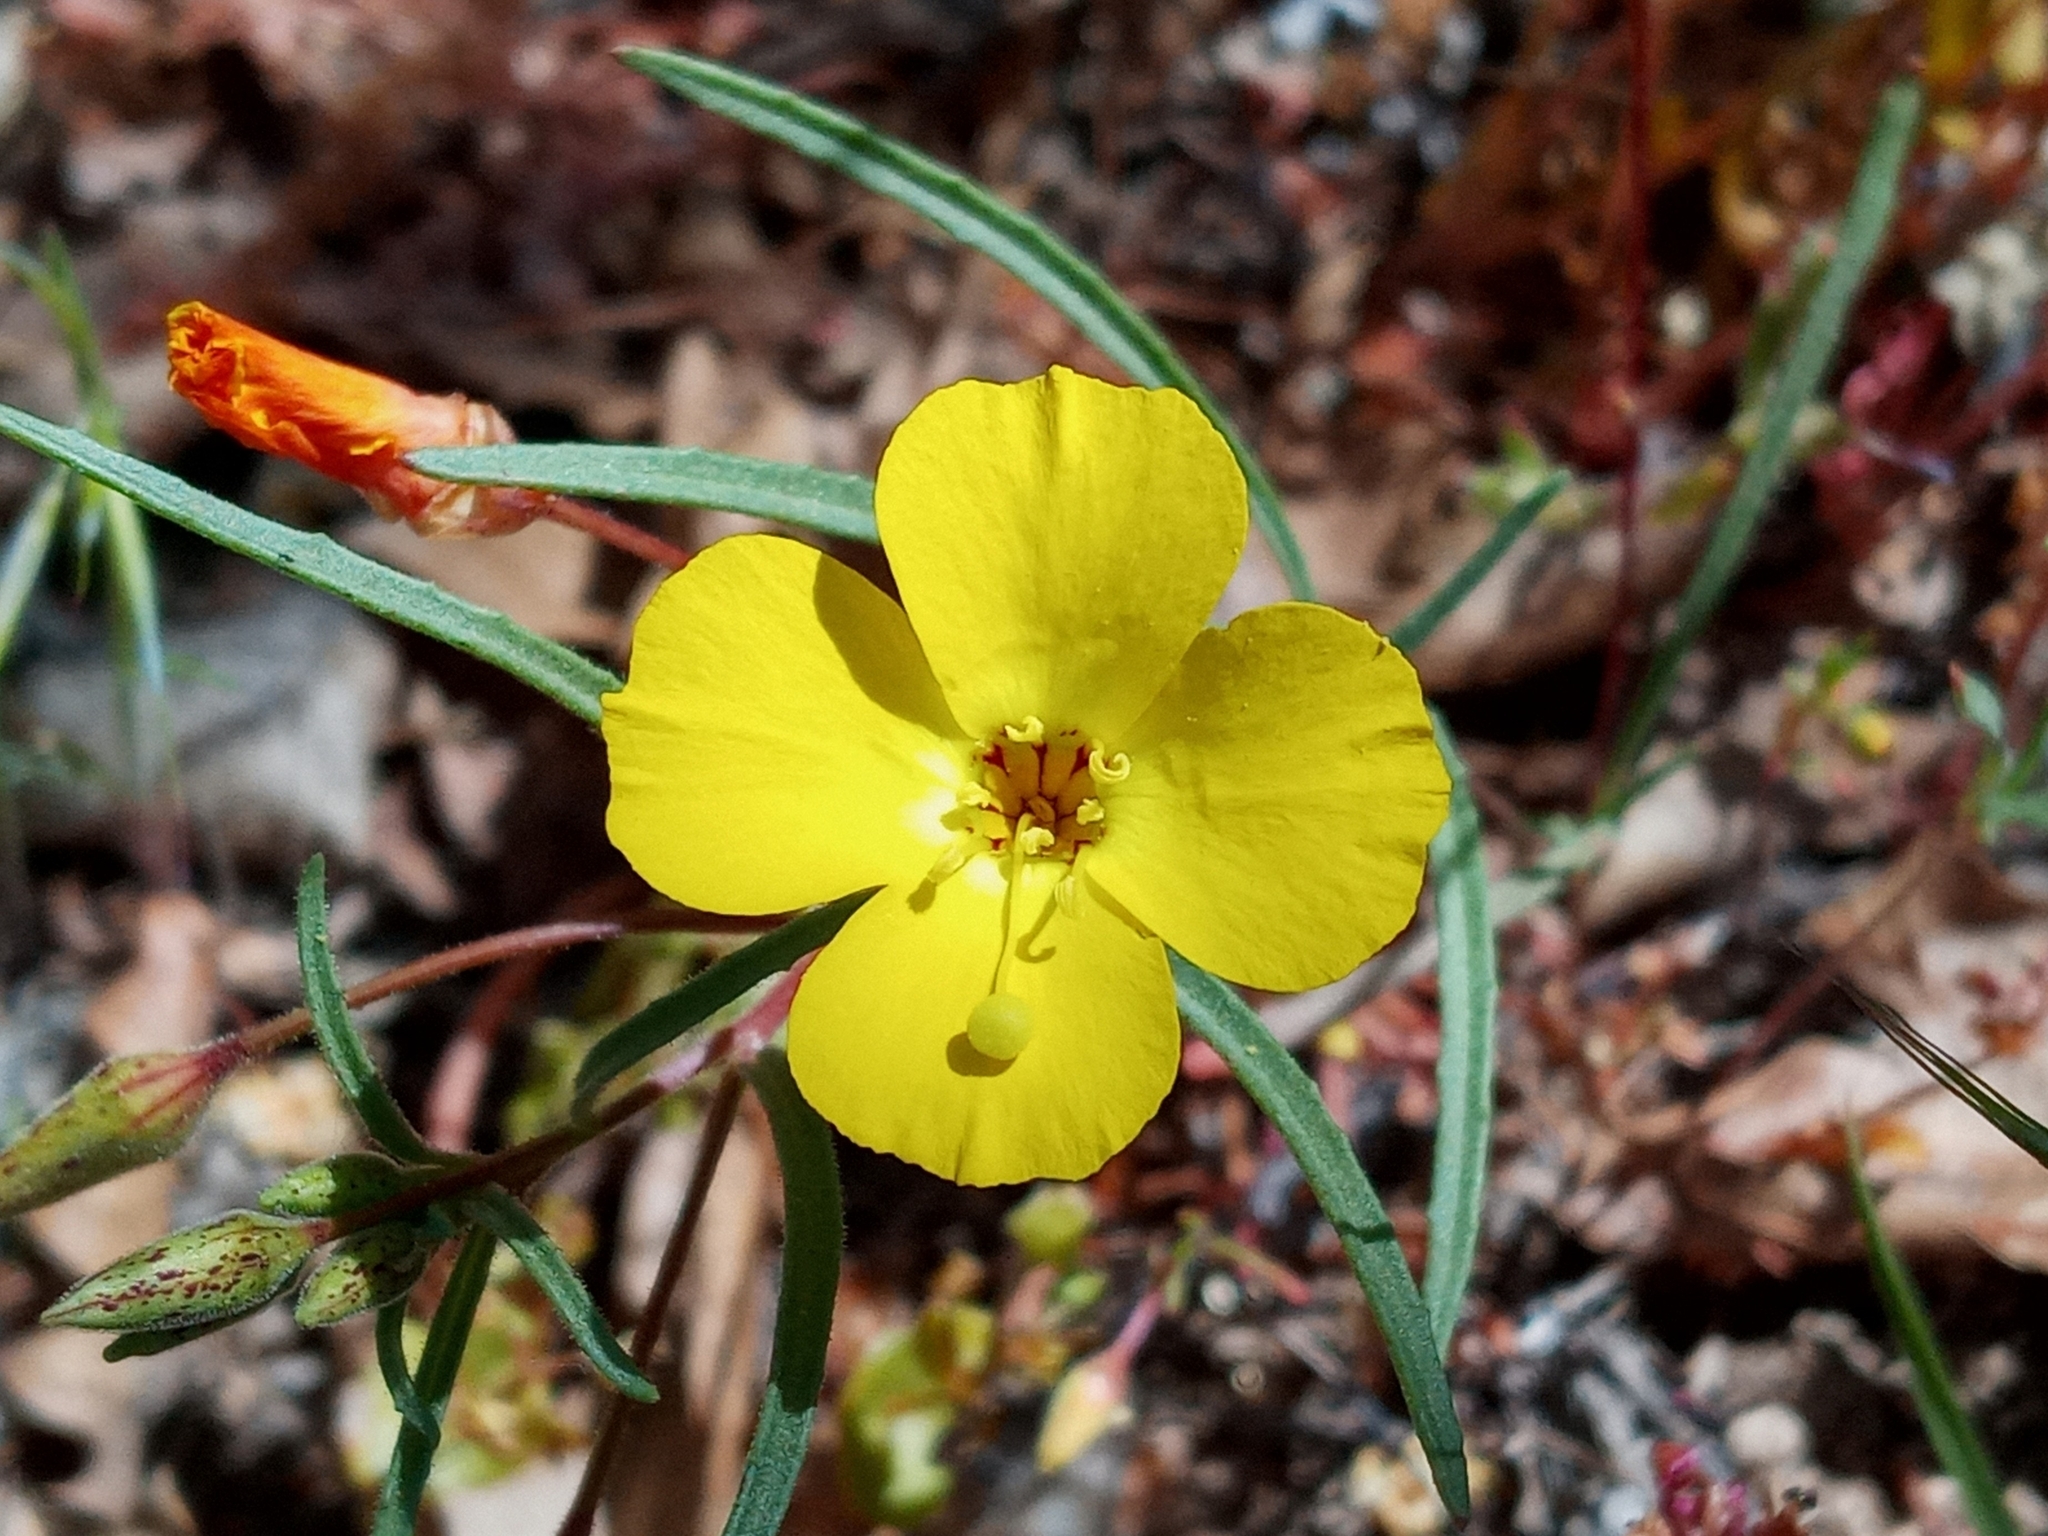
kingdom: Plantae
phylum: Tracheophyta
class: Magnoliopsida
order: Myrtales
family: Onagraceae
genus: Camissonia
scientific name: Camissonia campestris
